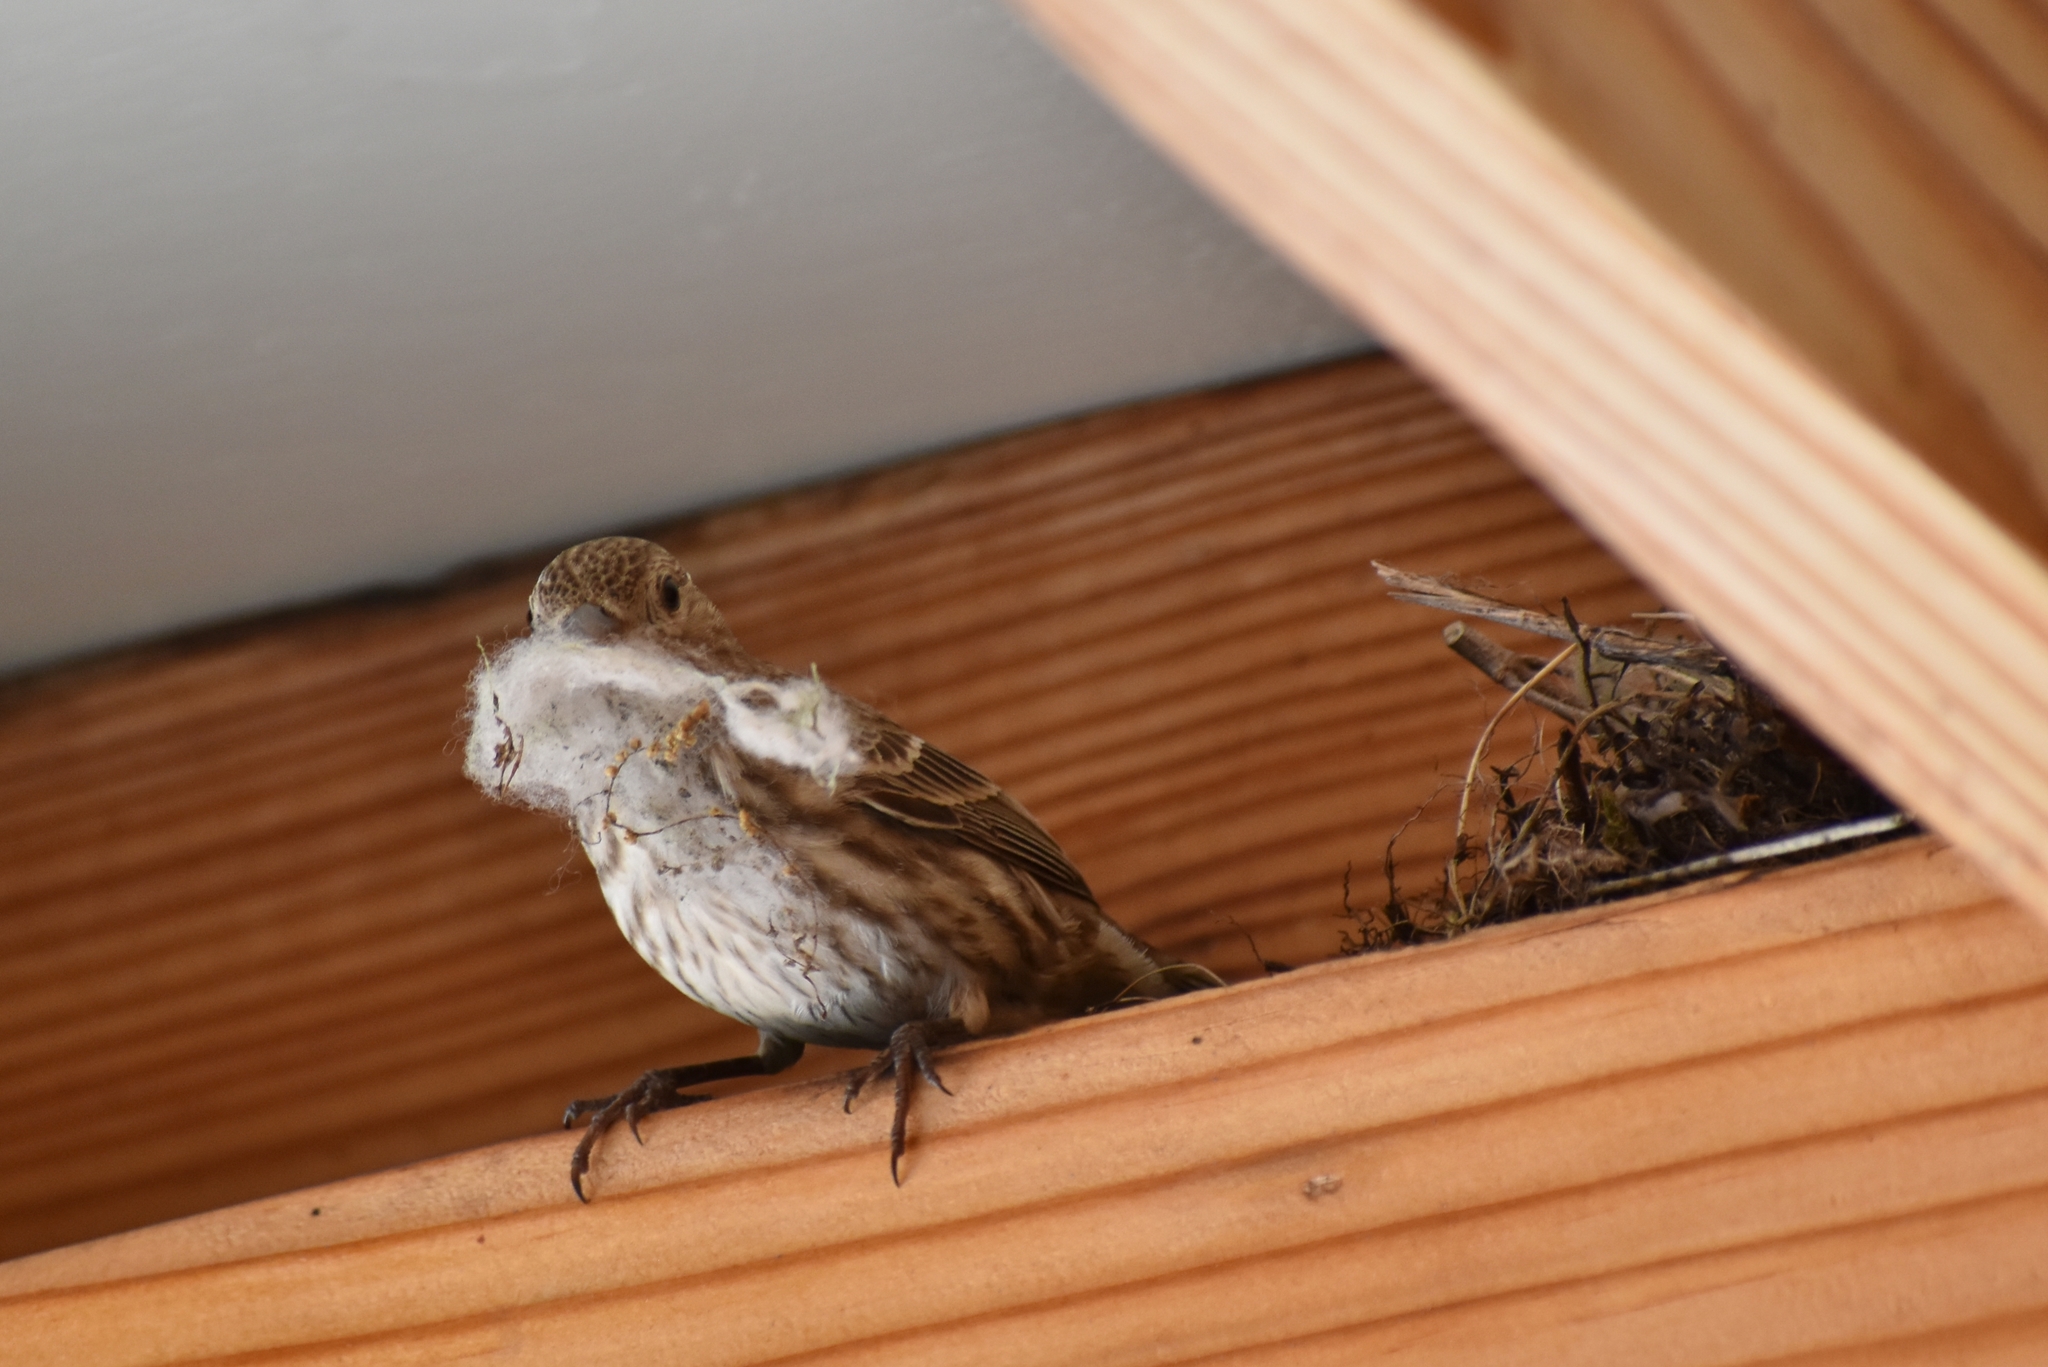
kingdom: Animalia
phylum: Chordata
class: Aves
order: Passeriformes
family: Fringillidae
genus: Haemorhous
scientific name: Haemorhous mexicanus
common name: House finch
